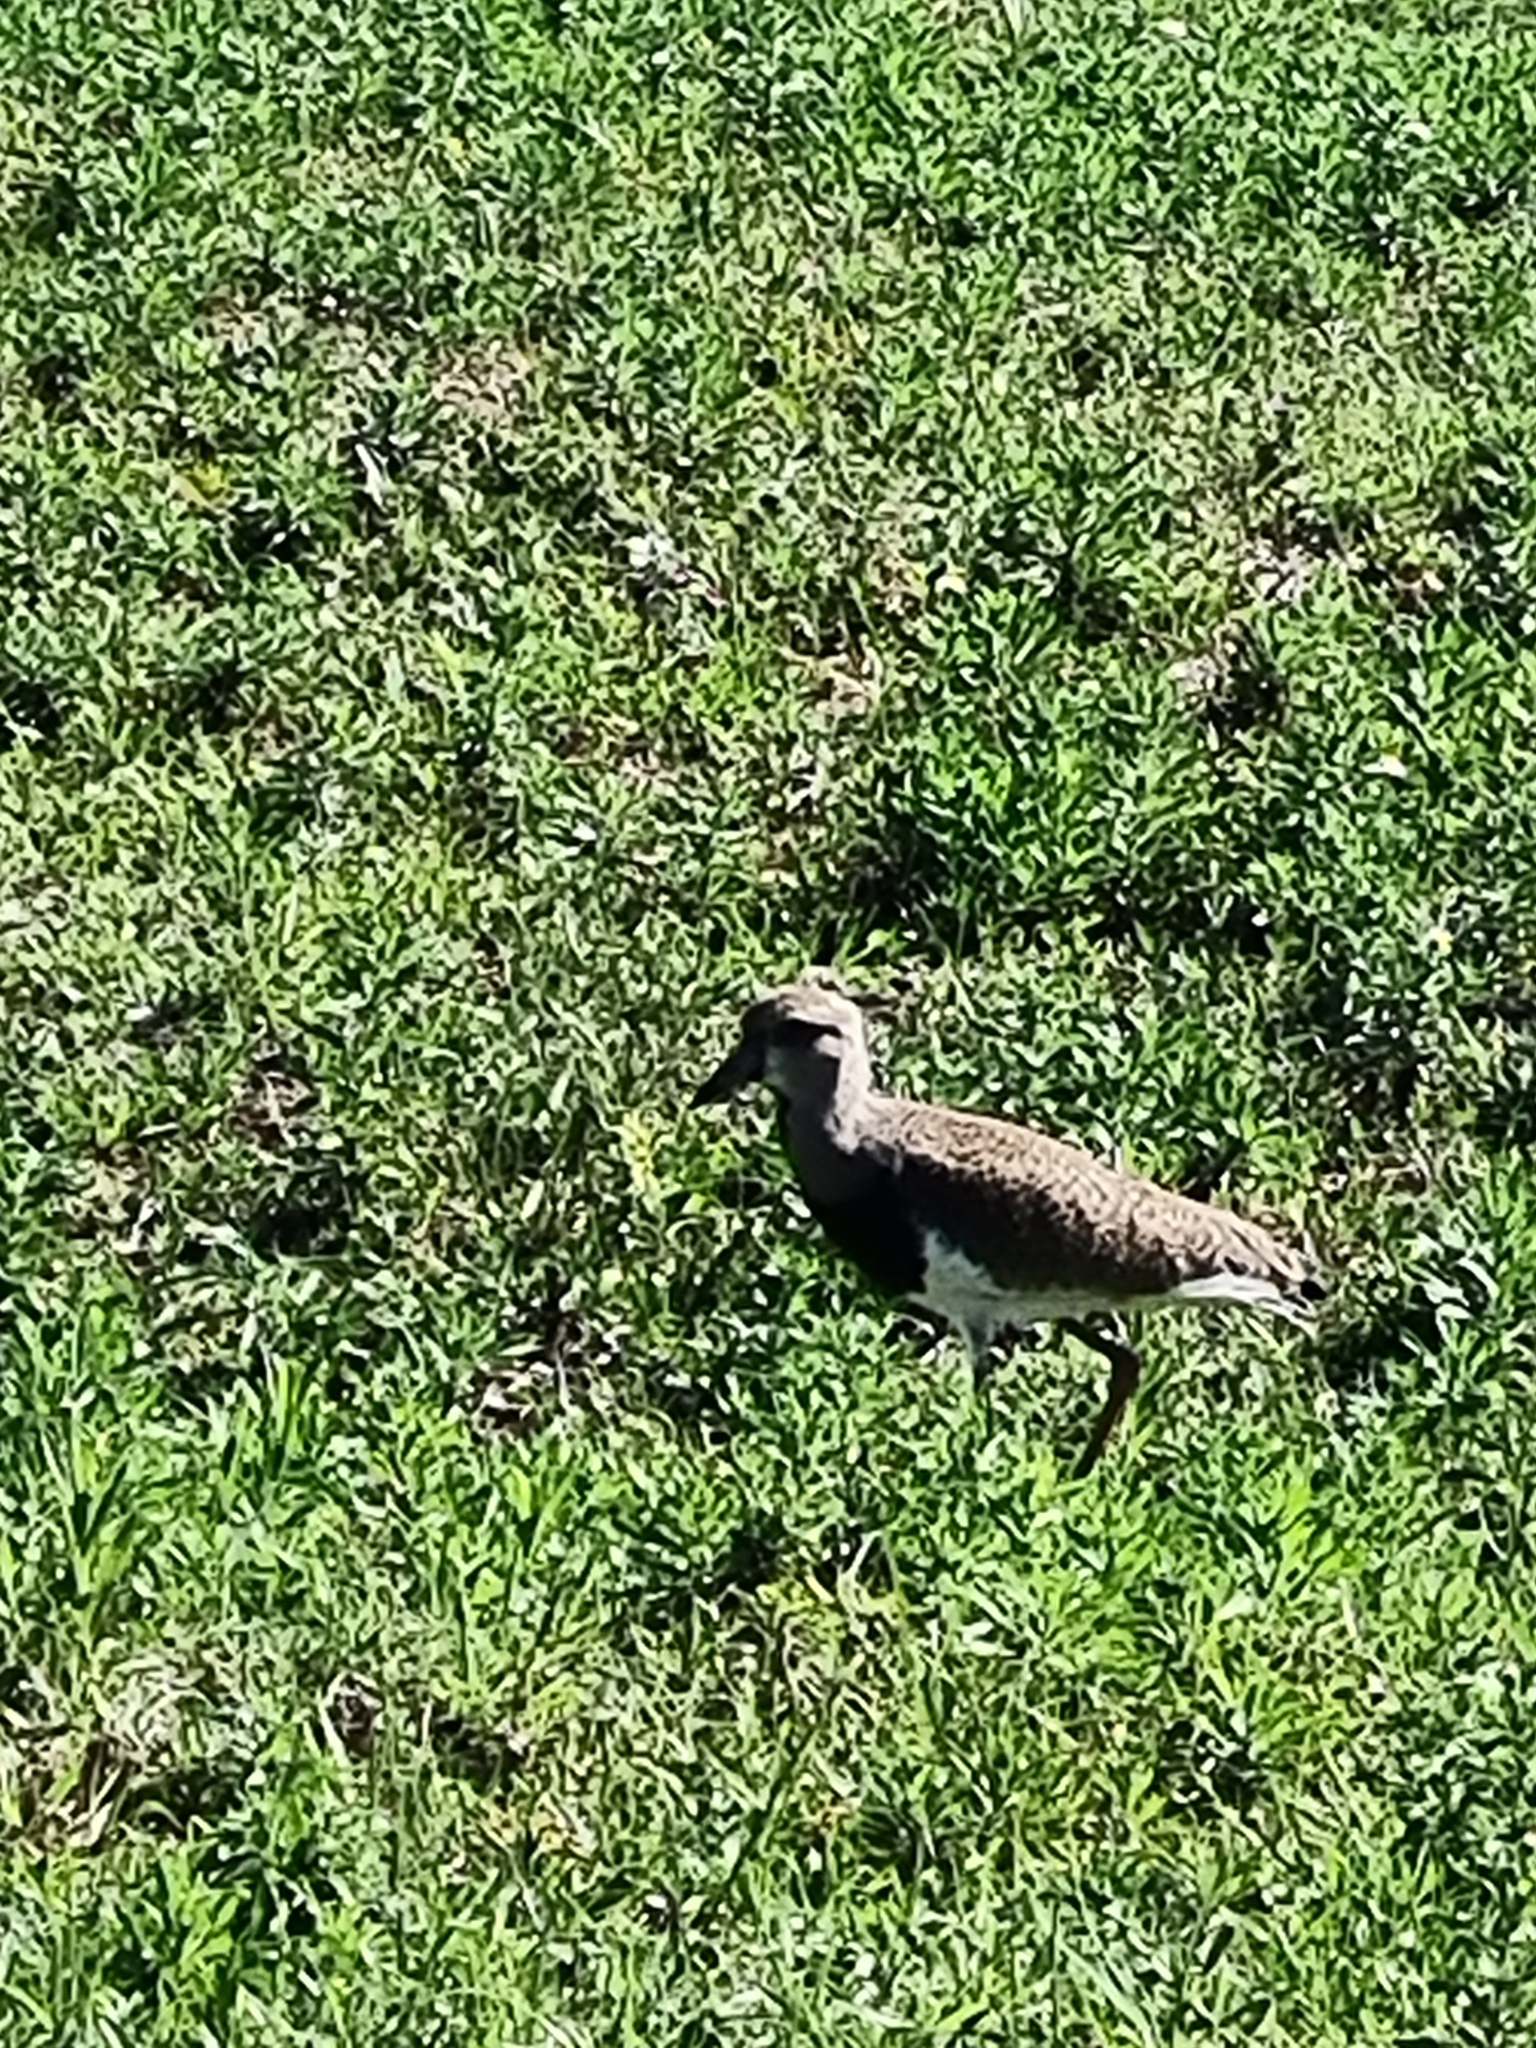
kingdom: Animalia
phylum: Chordata
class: Aves
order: Charadriiformes
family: Charadriidae
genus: Vanellus
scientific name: Vanellus chilensis
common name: Southern lapwing
